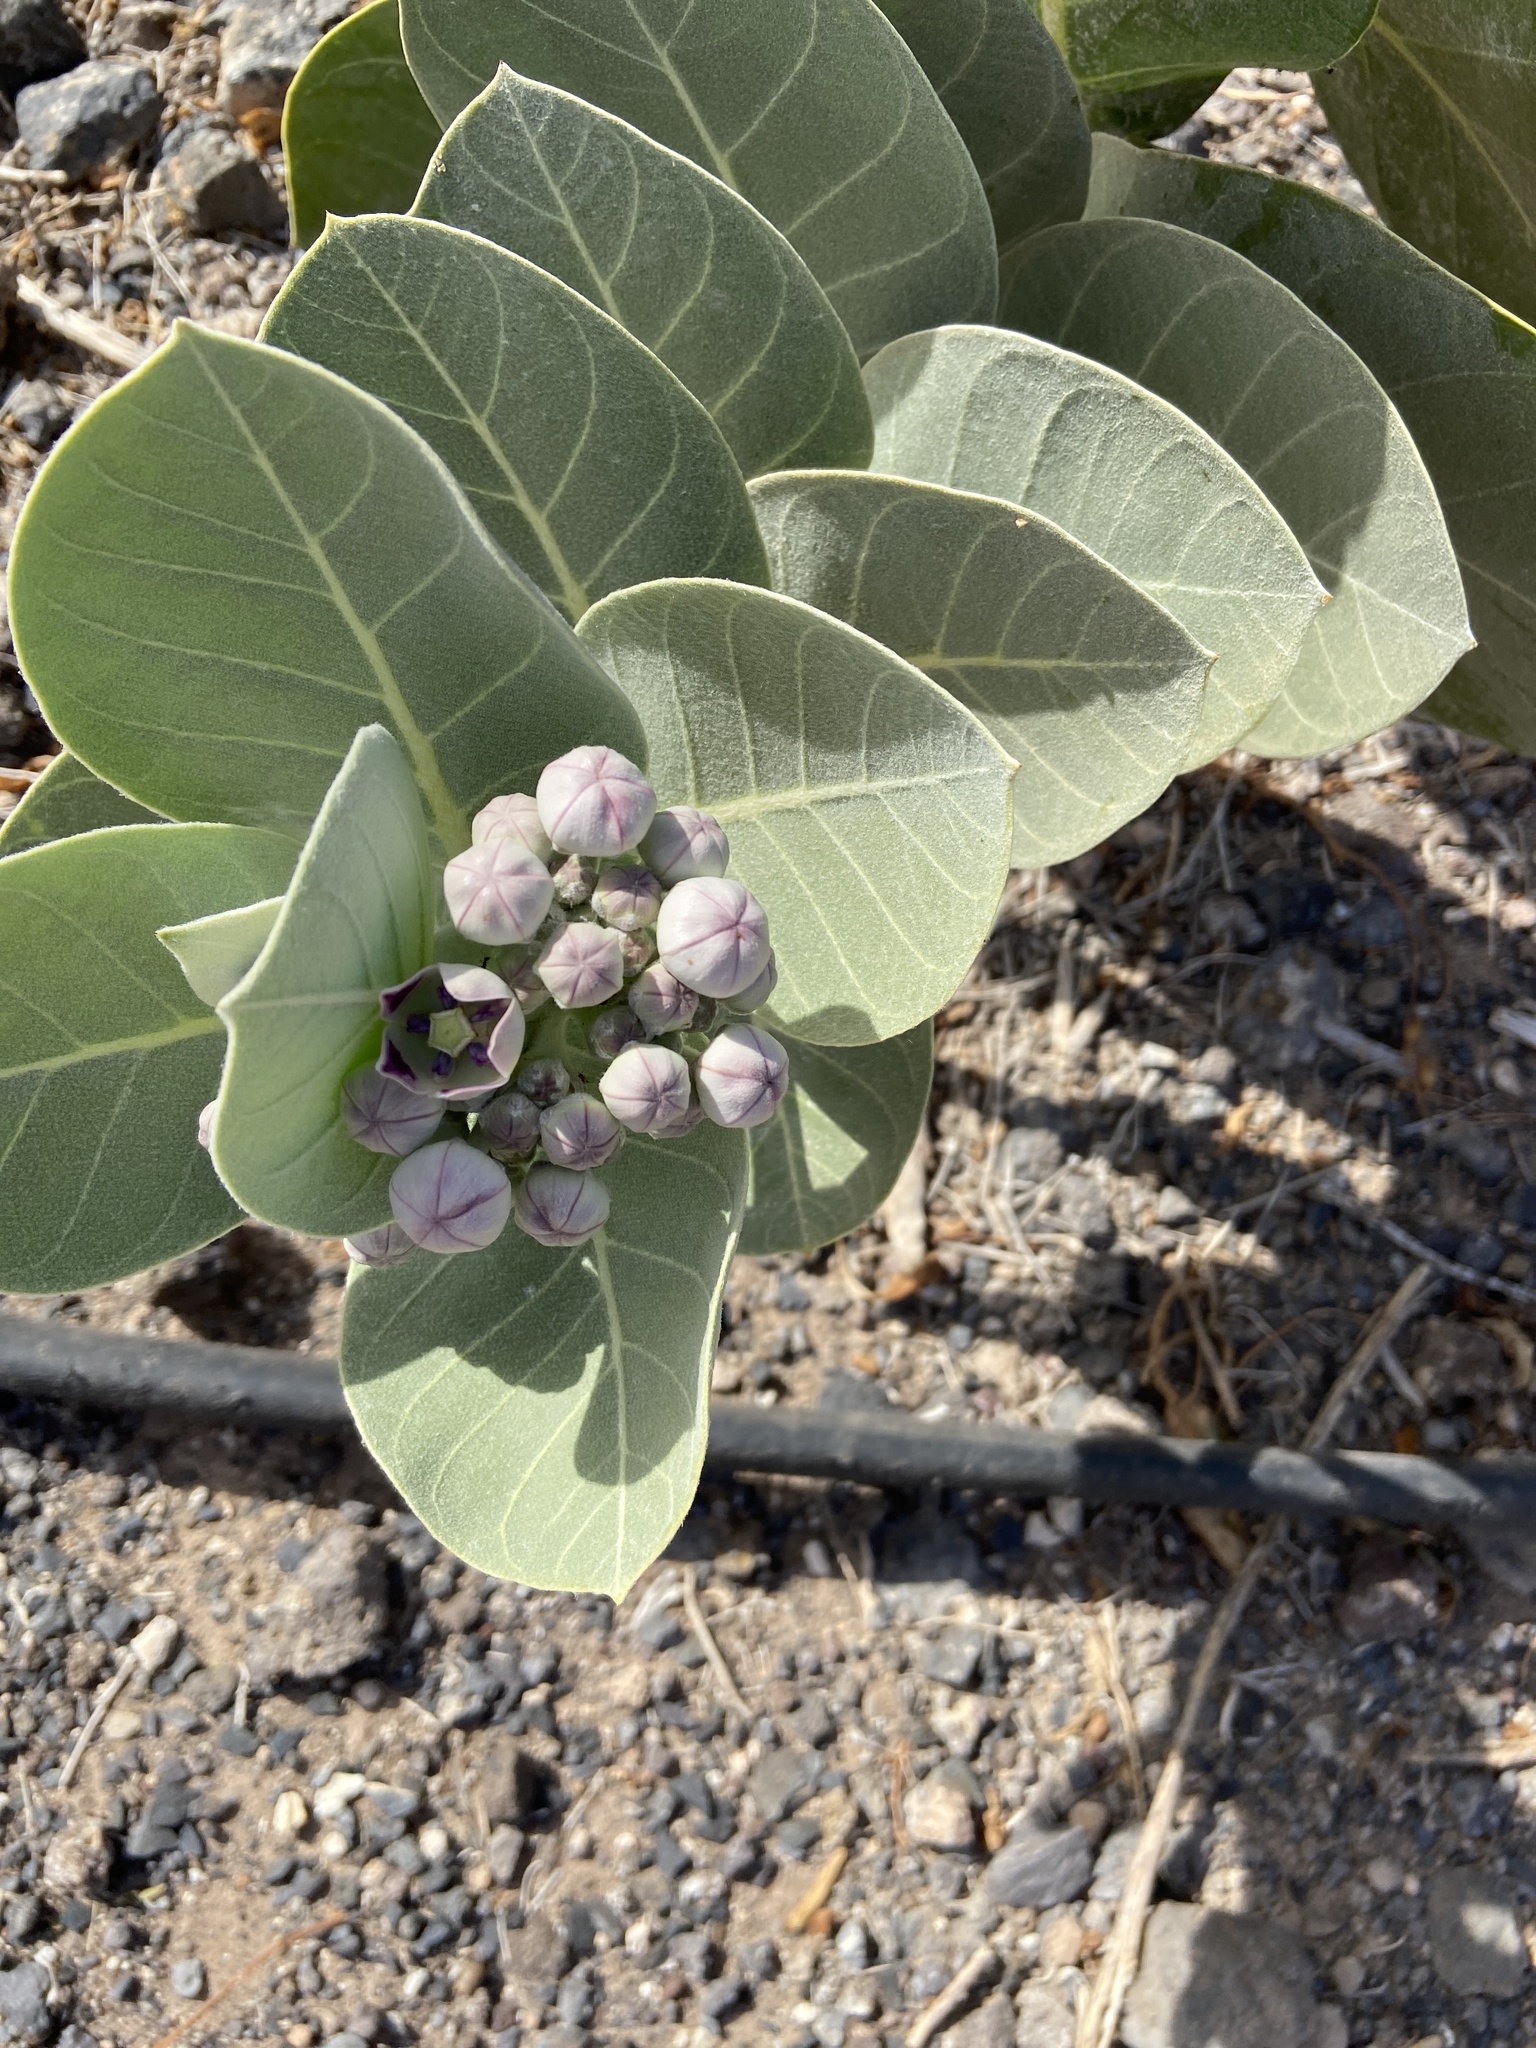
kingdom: Plantae
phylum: Tracheophyta
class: Magnoliopsida
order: Gentianales
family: Apocynaceae
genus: Calotropis
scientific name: Calotropis procera
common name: Roostertree
